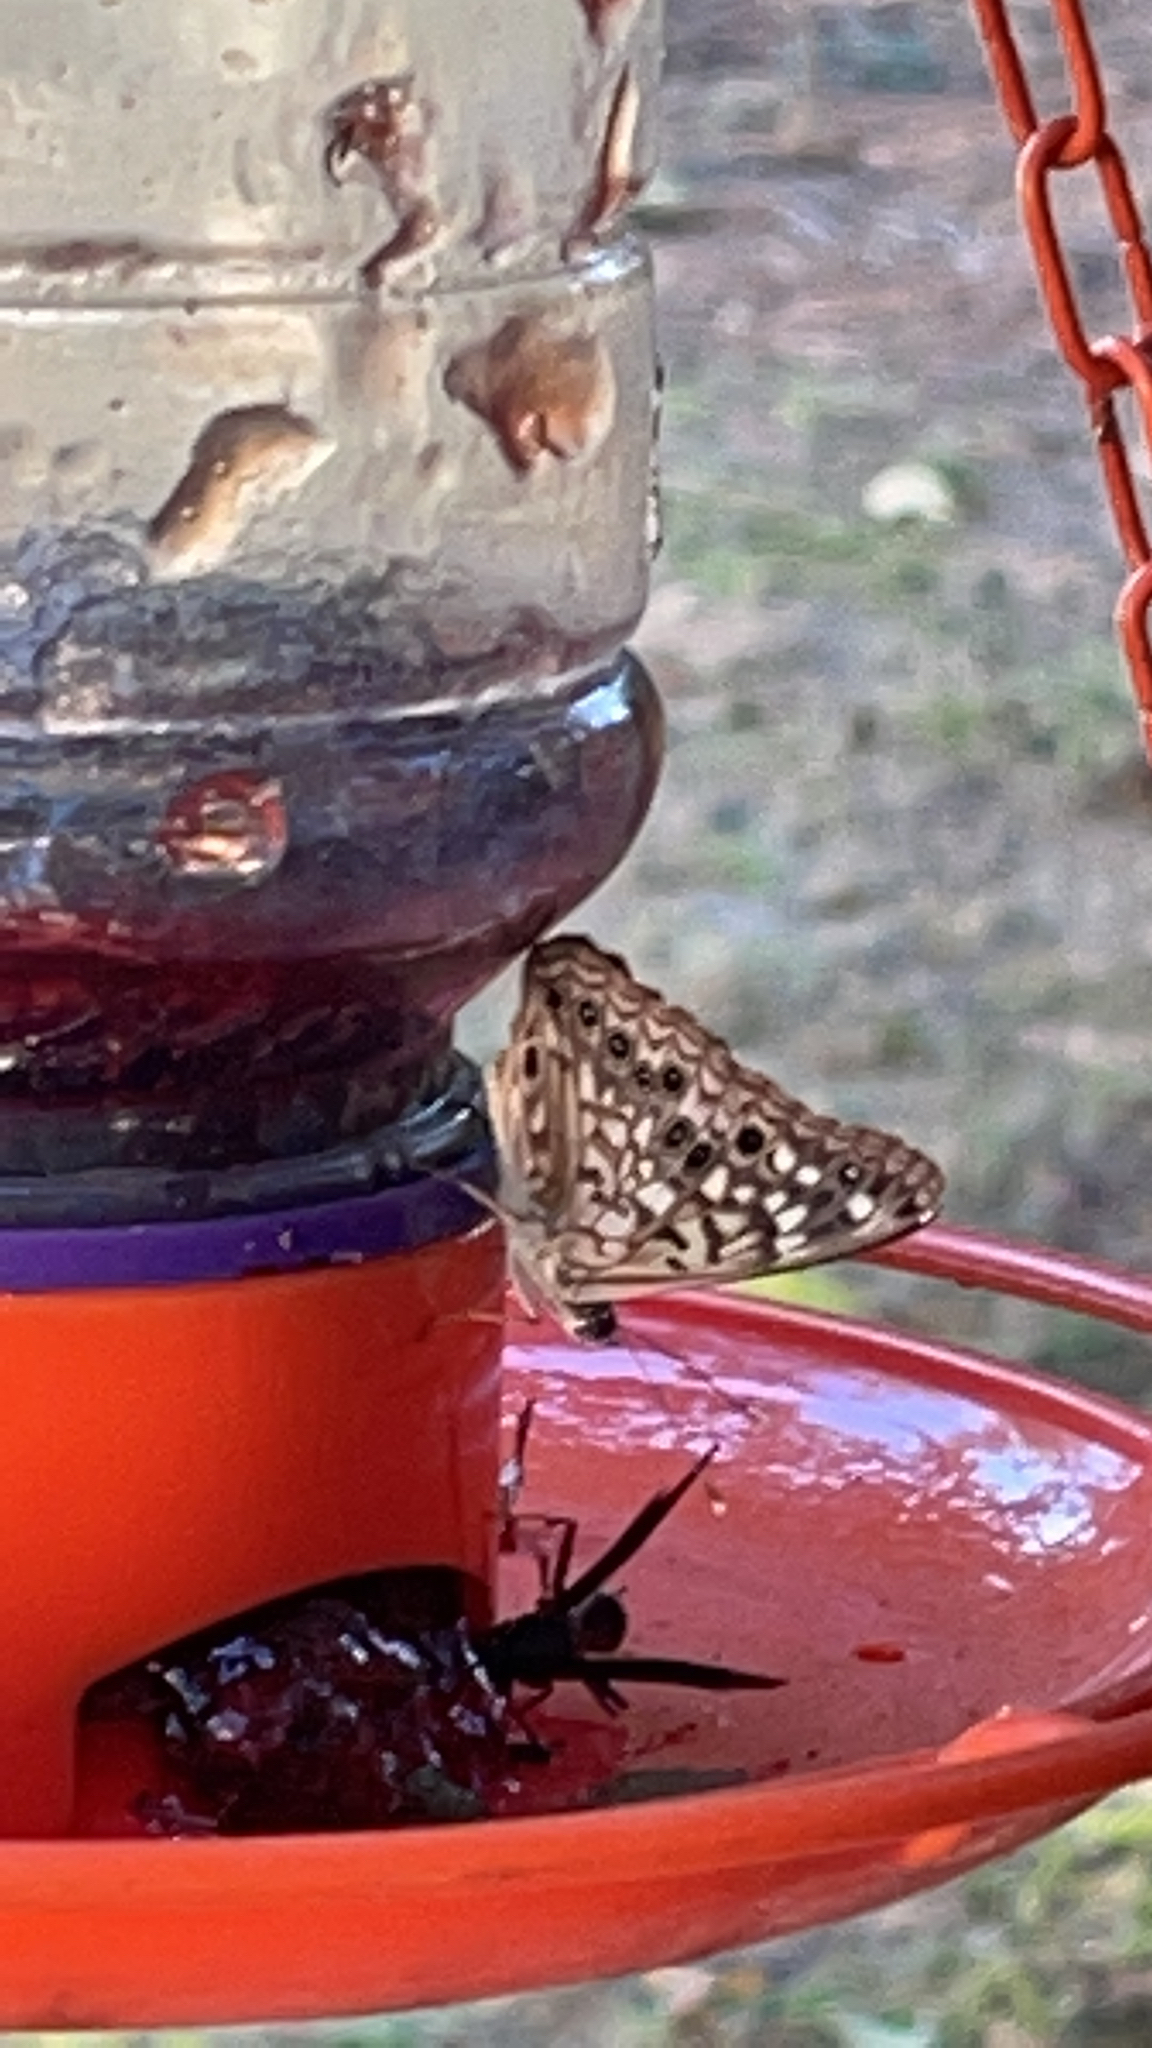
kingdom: Animalia
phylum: Arthropoda
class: Insecta
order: Lepidoptera
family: Nymphalidae
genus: Asterocampa
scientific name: Asterocampa celtis
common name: Hackberry emperor
